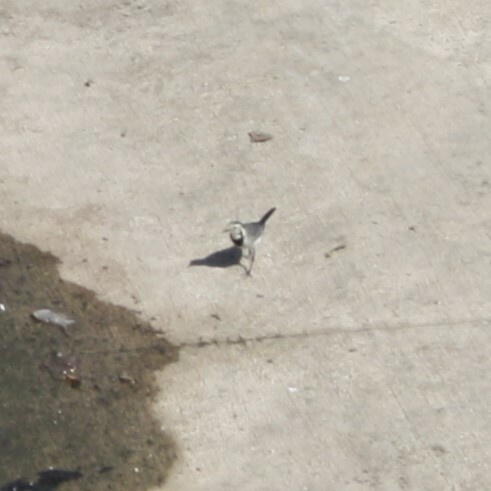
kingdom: Animalia
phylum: Chordata
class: Aves
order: Passeriformes
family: Motacillidae
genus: Motacilla
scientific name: Motacilla alba
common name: White wagtail
